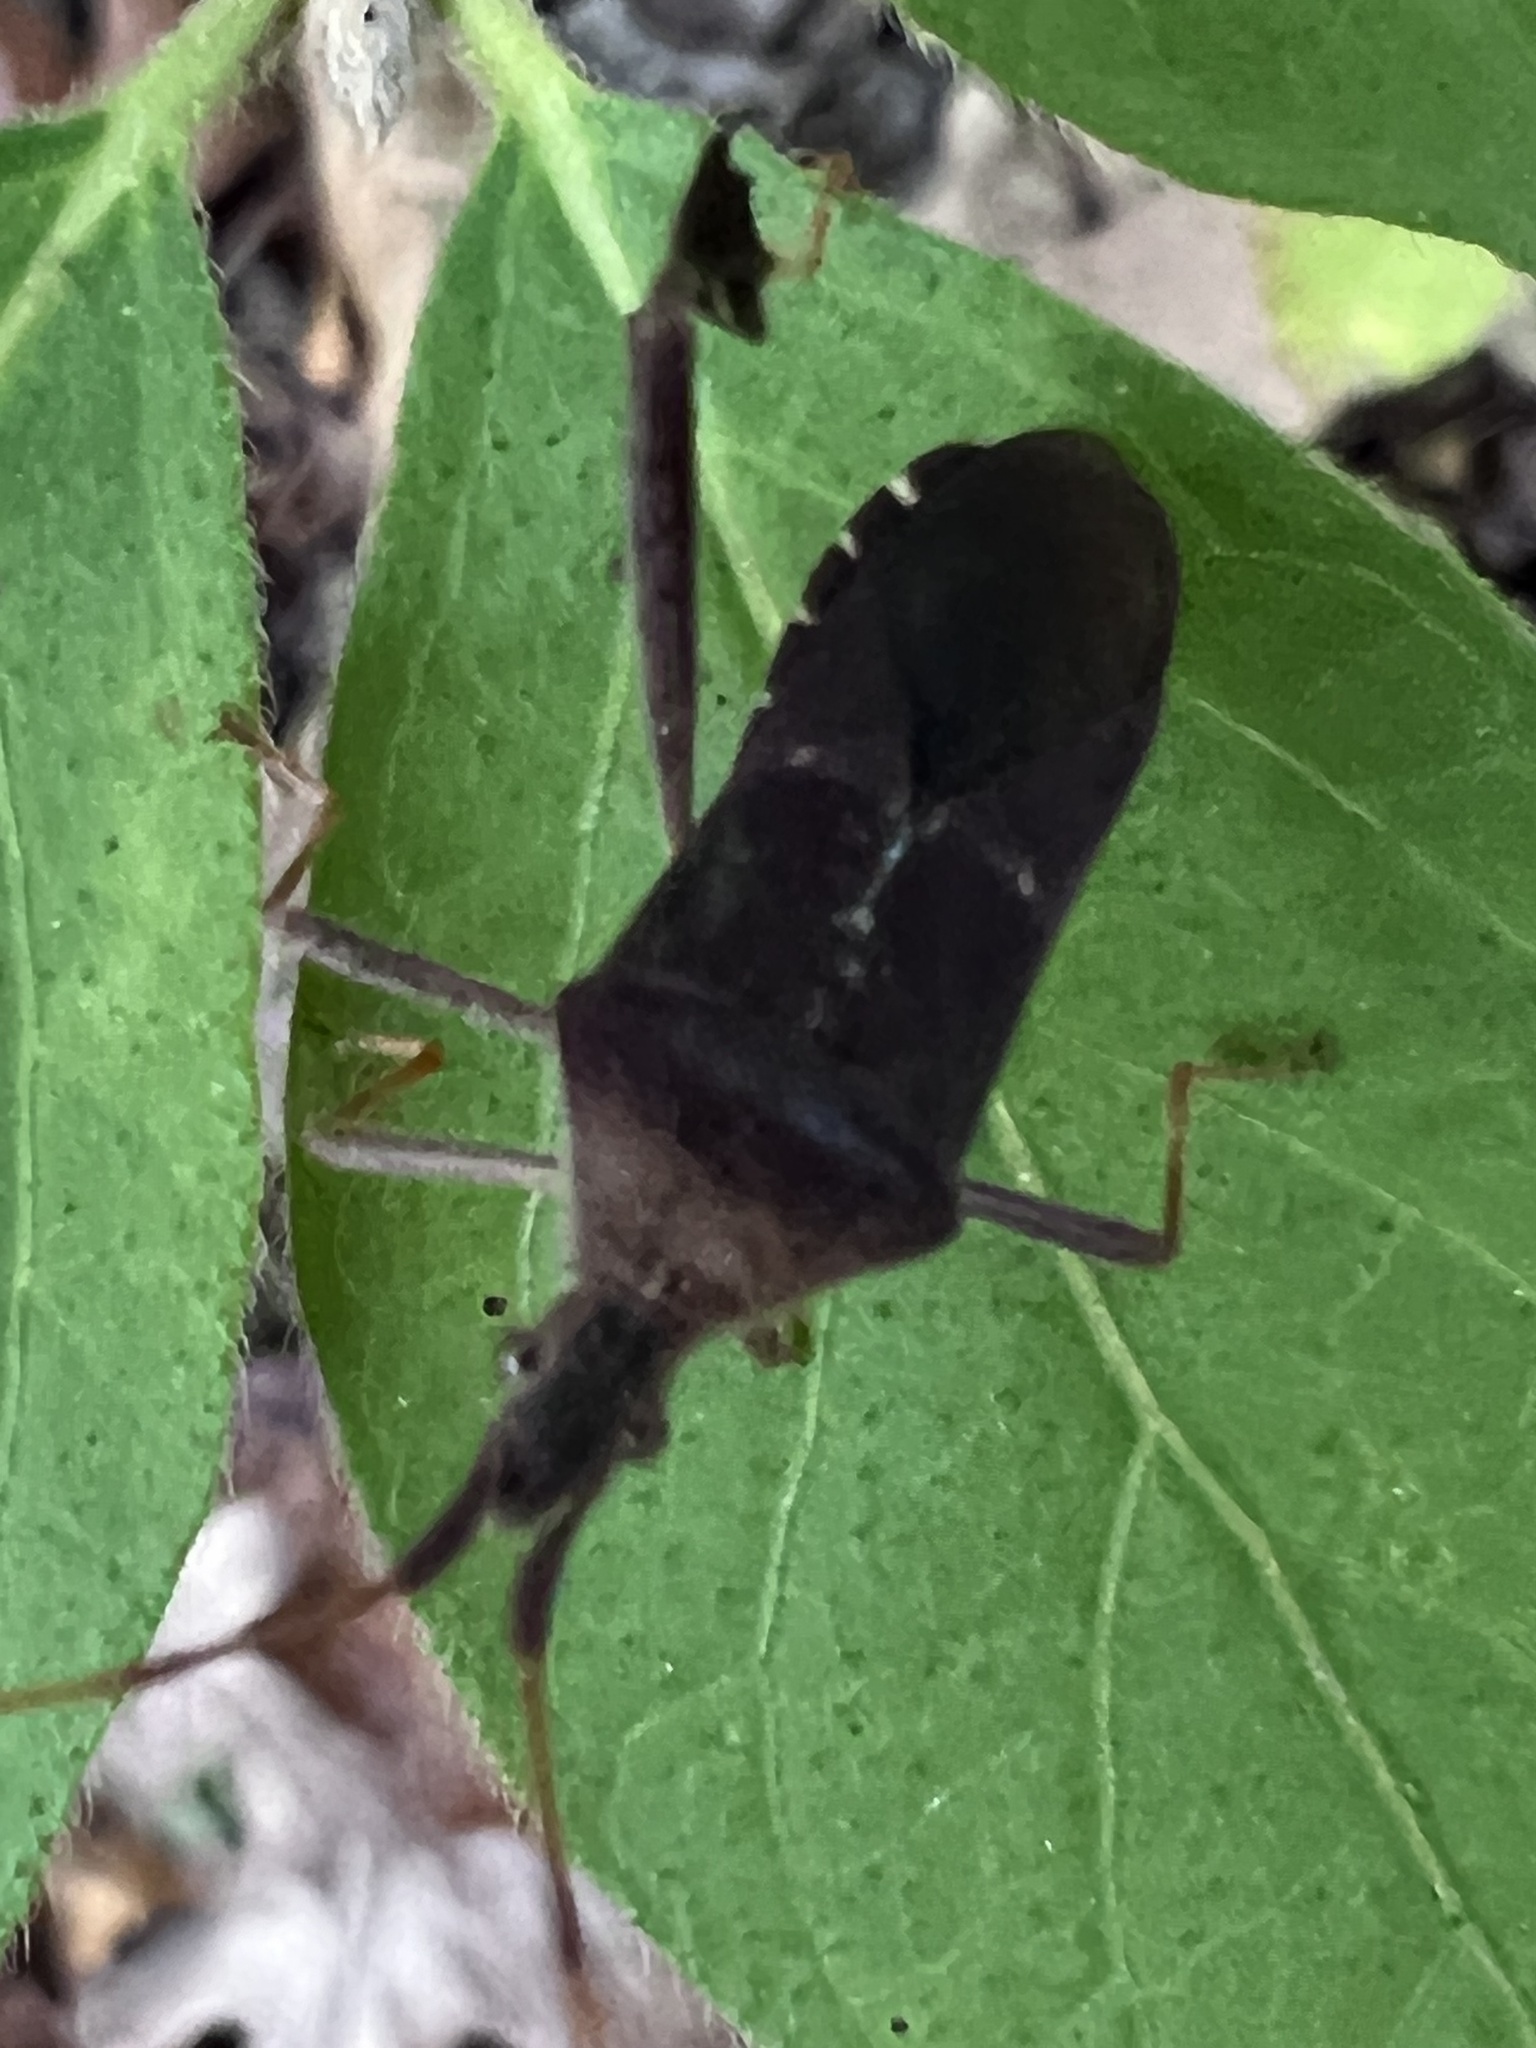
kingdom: Animalia
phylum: Arthropoda
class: Insecta
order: Hemiptera
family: Coreidae
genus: Leptoglossus
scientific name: Leptoglossus oppositus
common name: Northern leaf-footed bug
